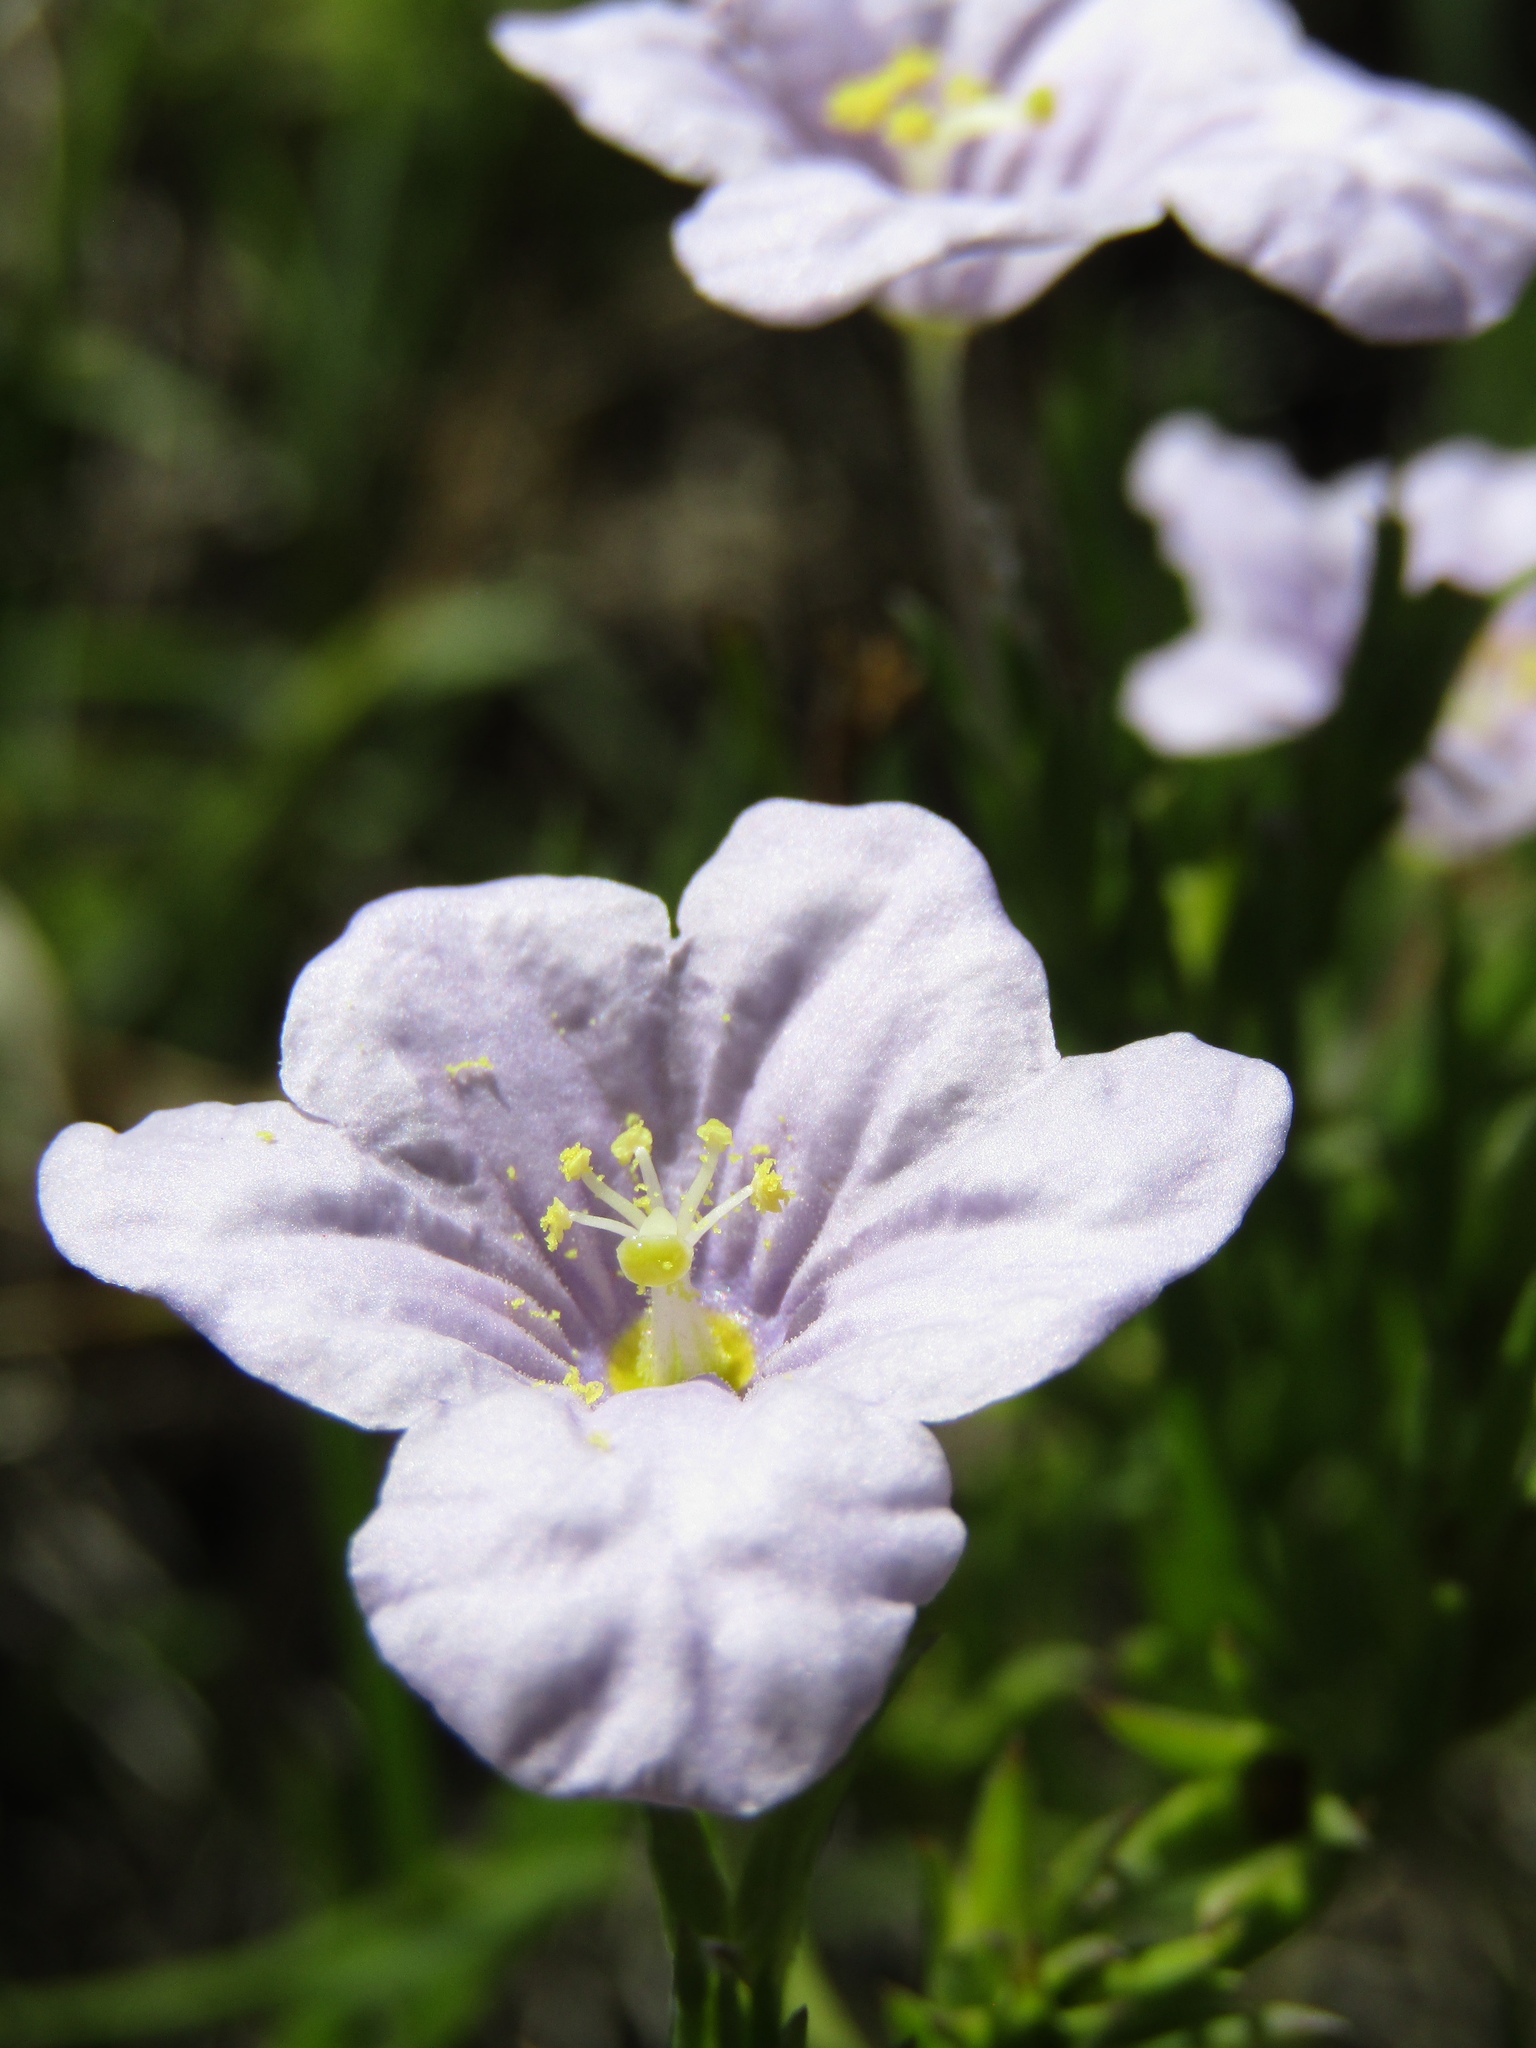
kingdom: Plantae
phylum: Tracheophyta
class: Magnoliopsida
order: Solanales
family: Solanaceae
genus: Nierembergia
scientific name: Nierembergia aristata
